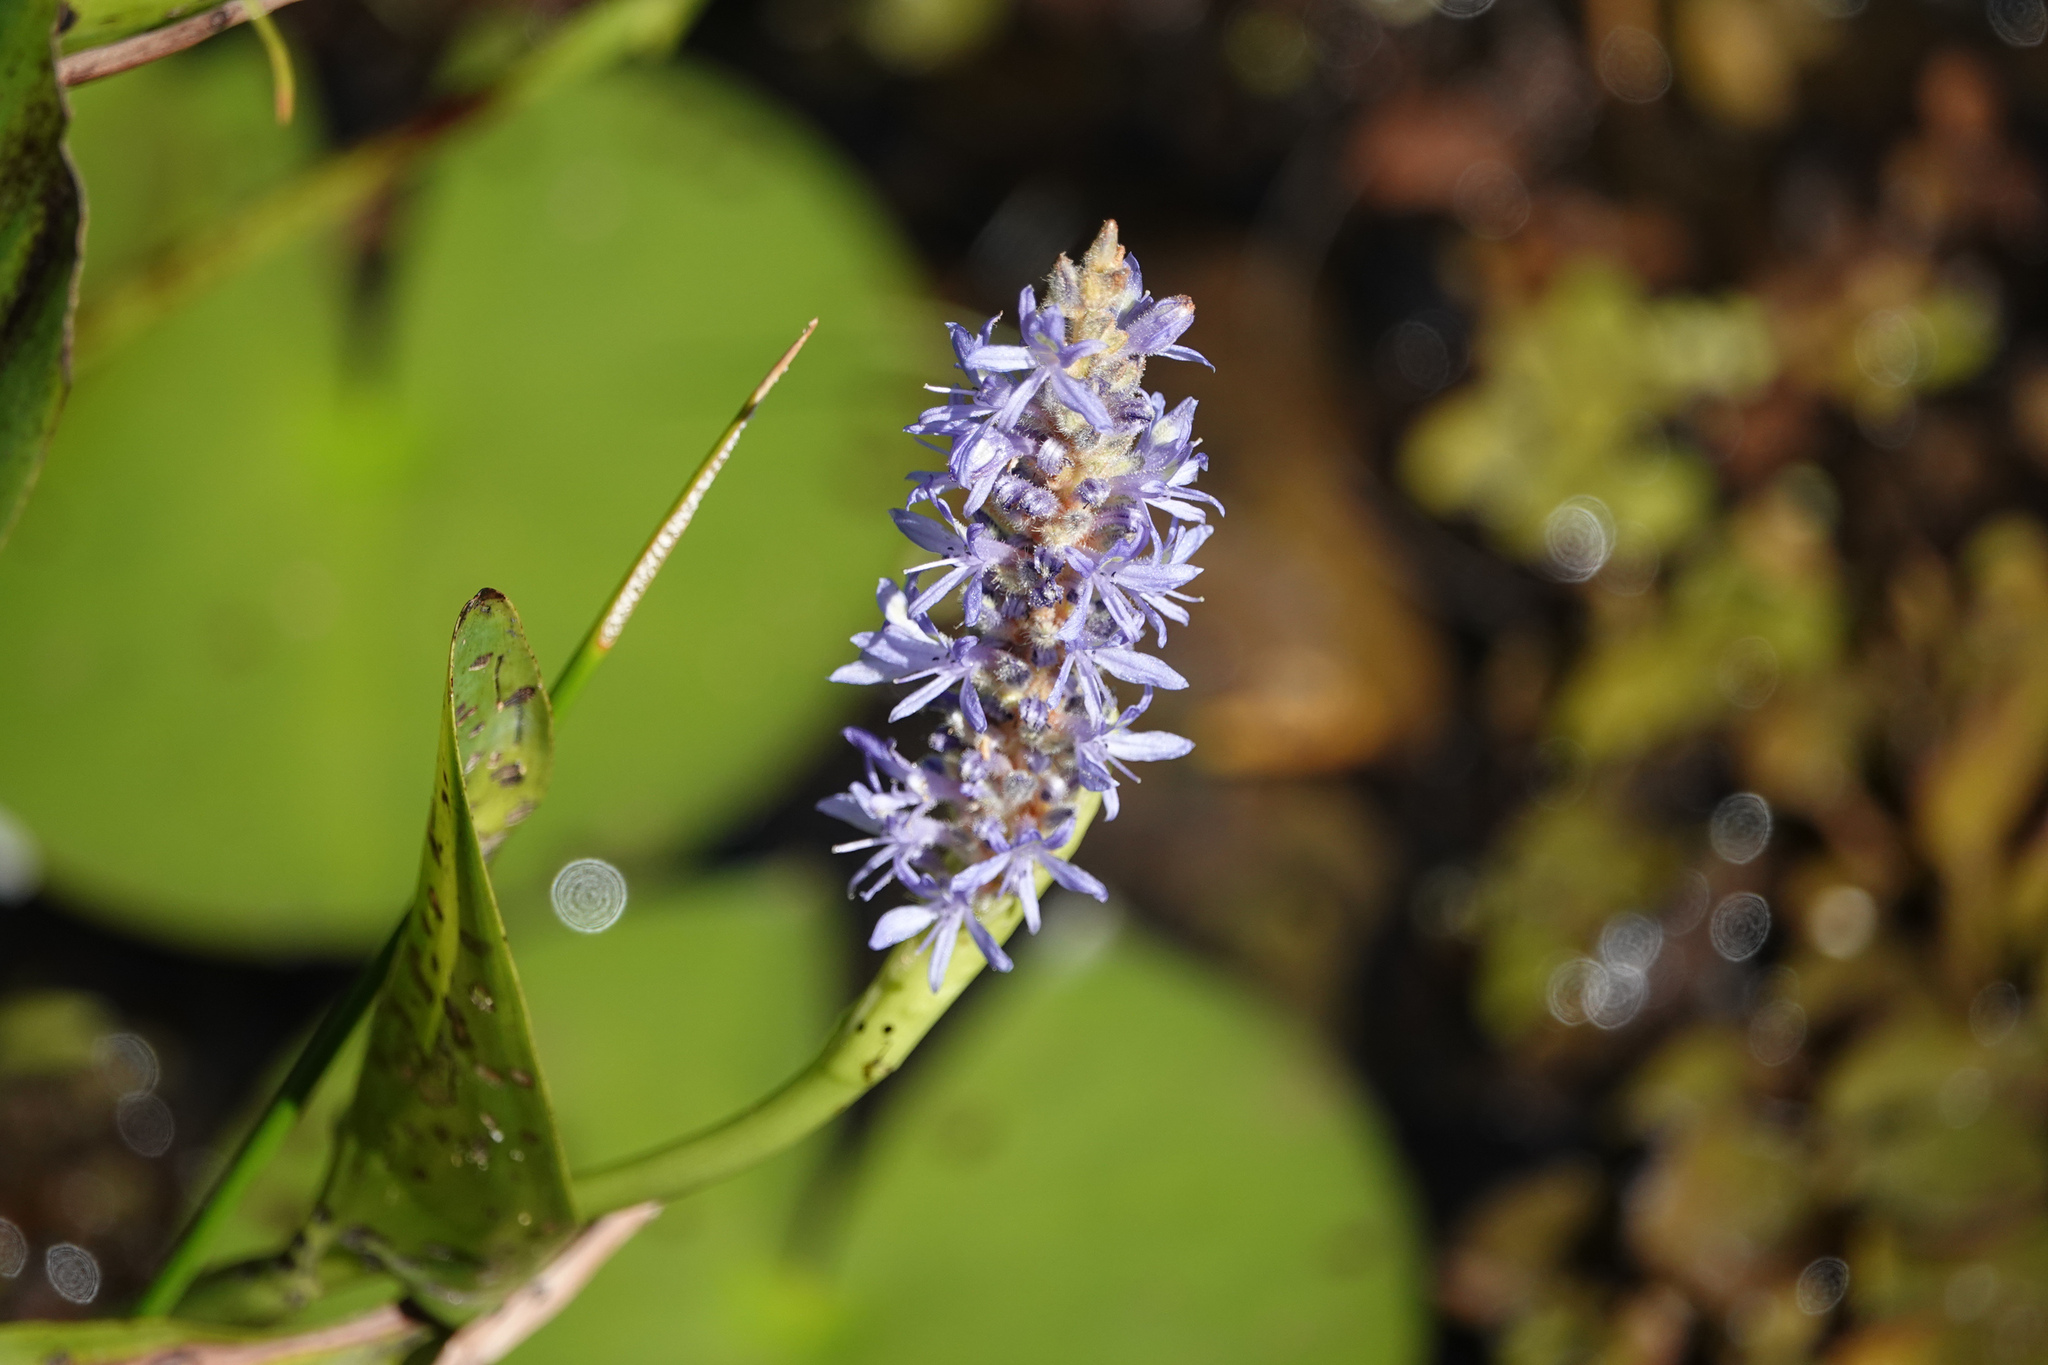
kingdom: Plantae
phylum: Tracheophyta
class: Liliopsida
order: Commelinales
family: Pontederiaceae
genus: Pontederia
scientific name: Pontederia cordata
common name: Pickerelweed
